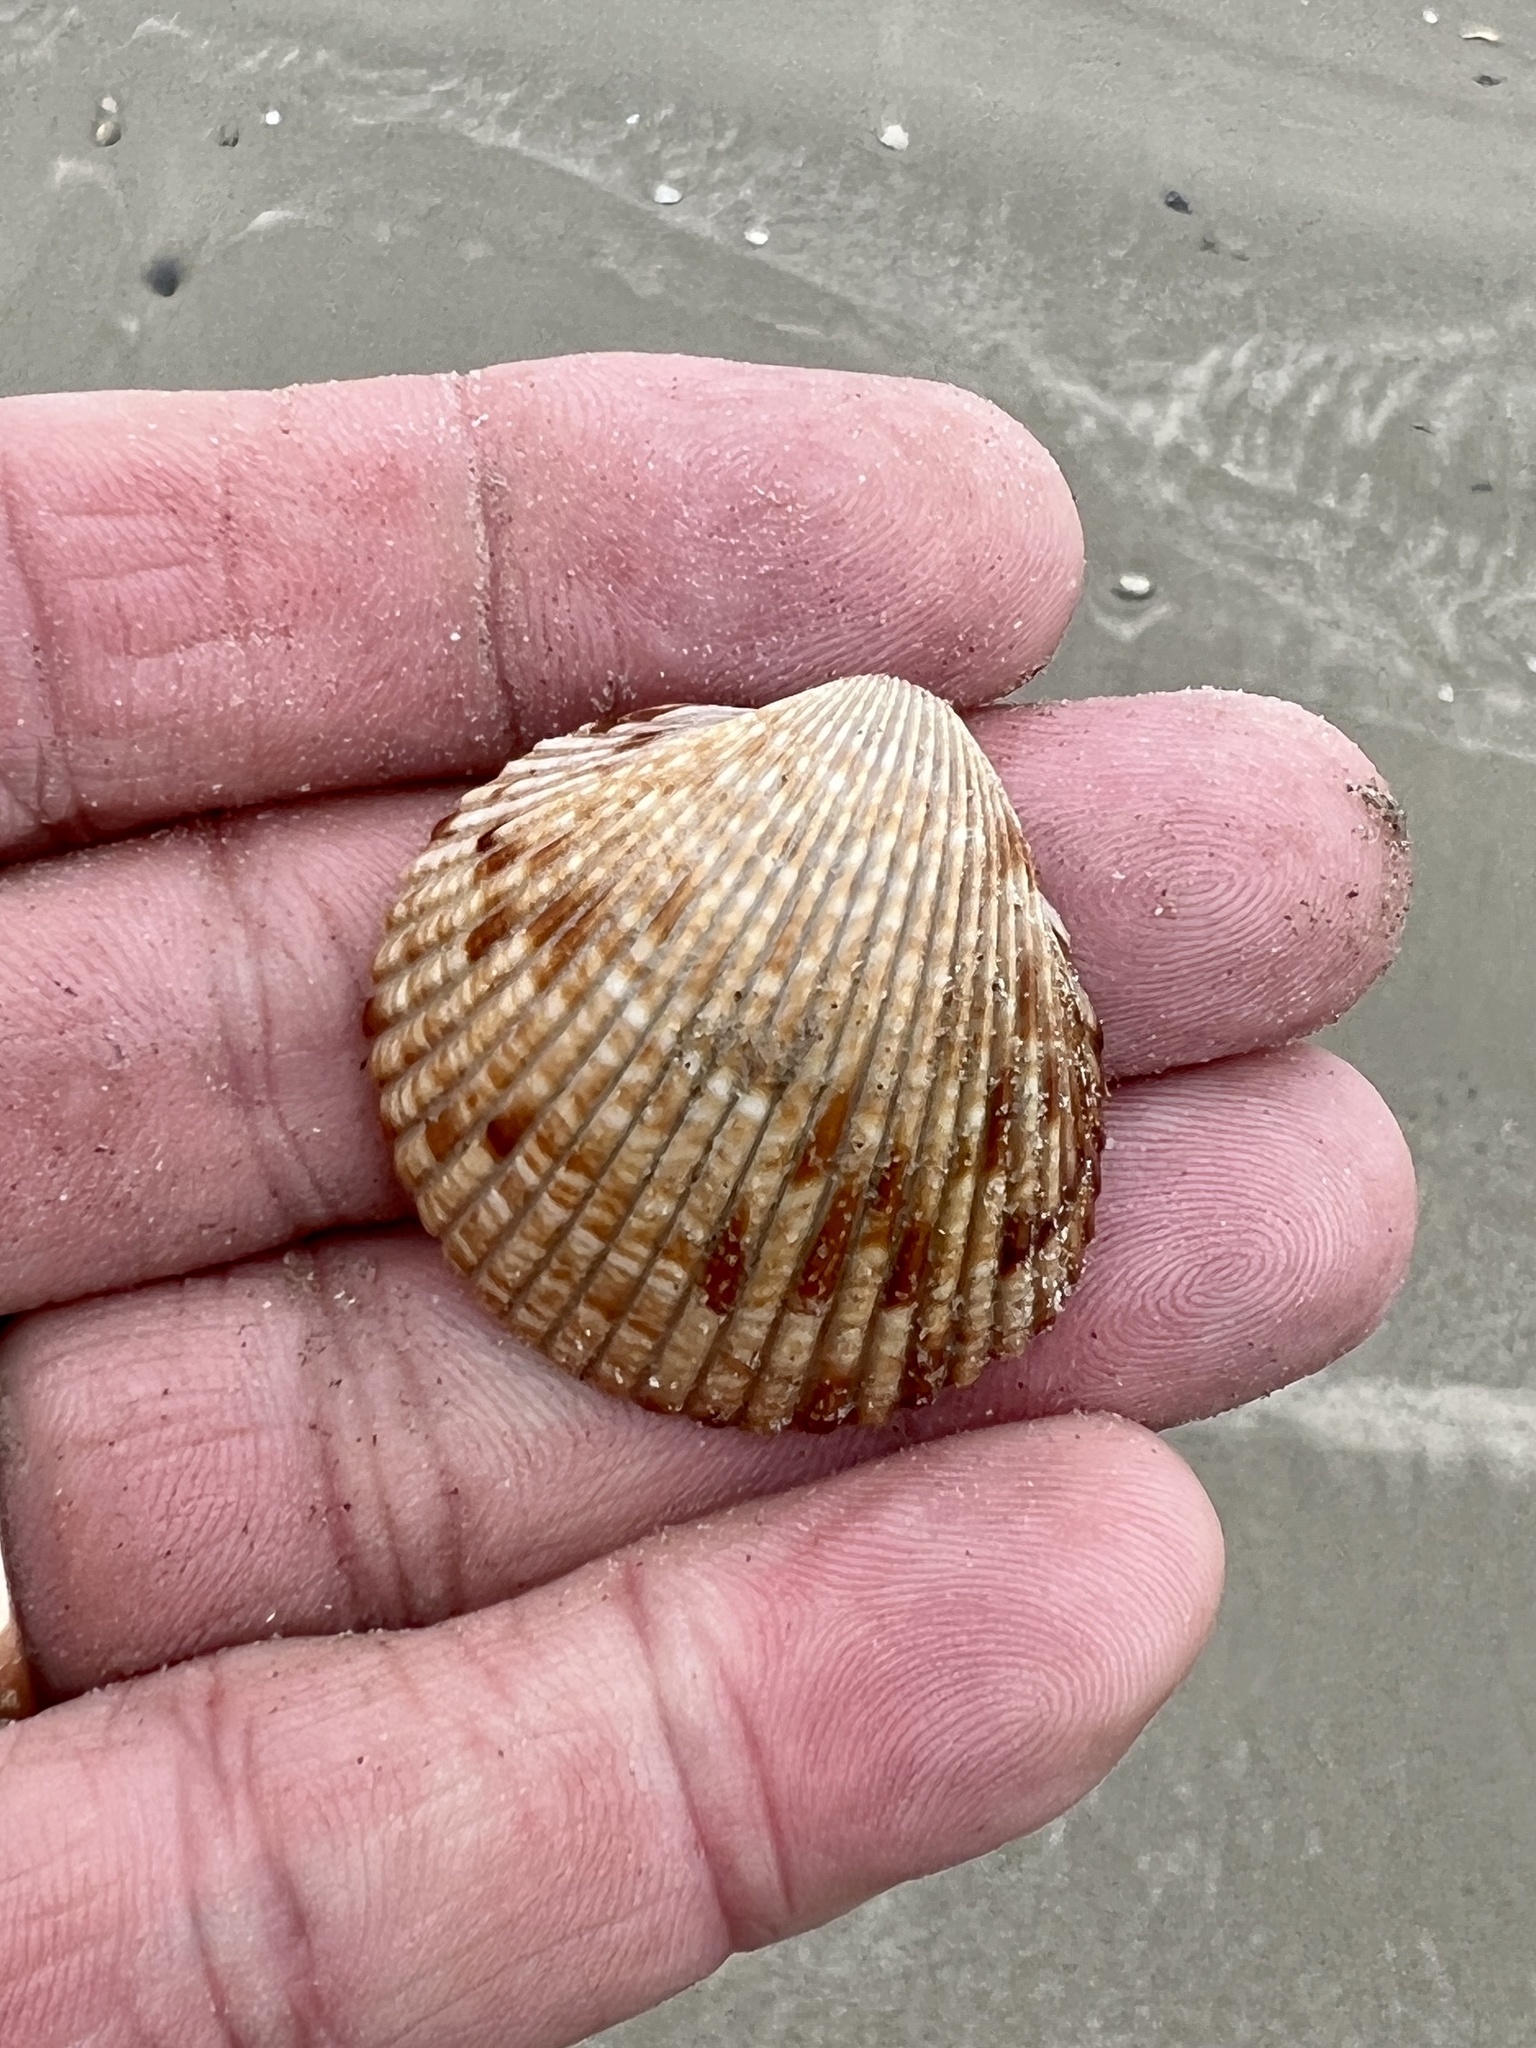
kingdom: Animalia
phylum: Mollusca
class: Bivalvia
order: Cardiida
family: Cardiidae
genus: Dinocardium
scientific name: Dinocardium robustum
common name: Atlantic giant cockle
